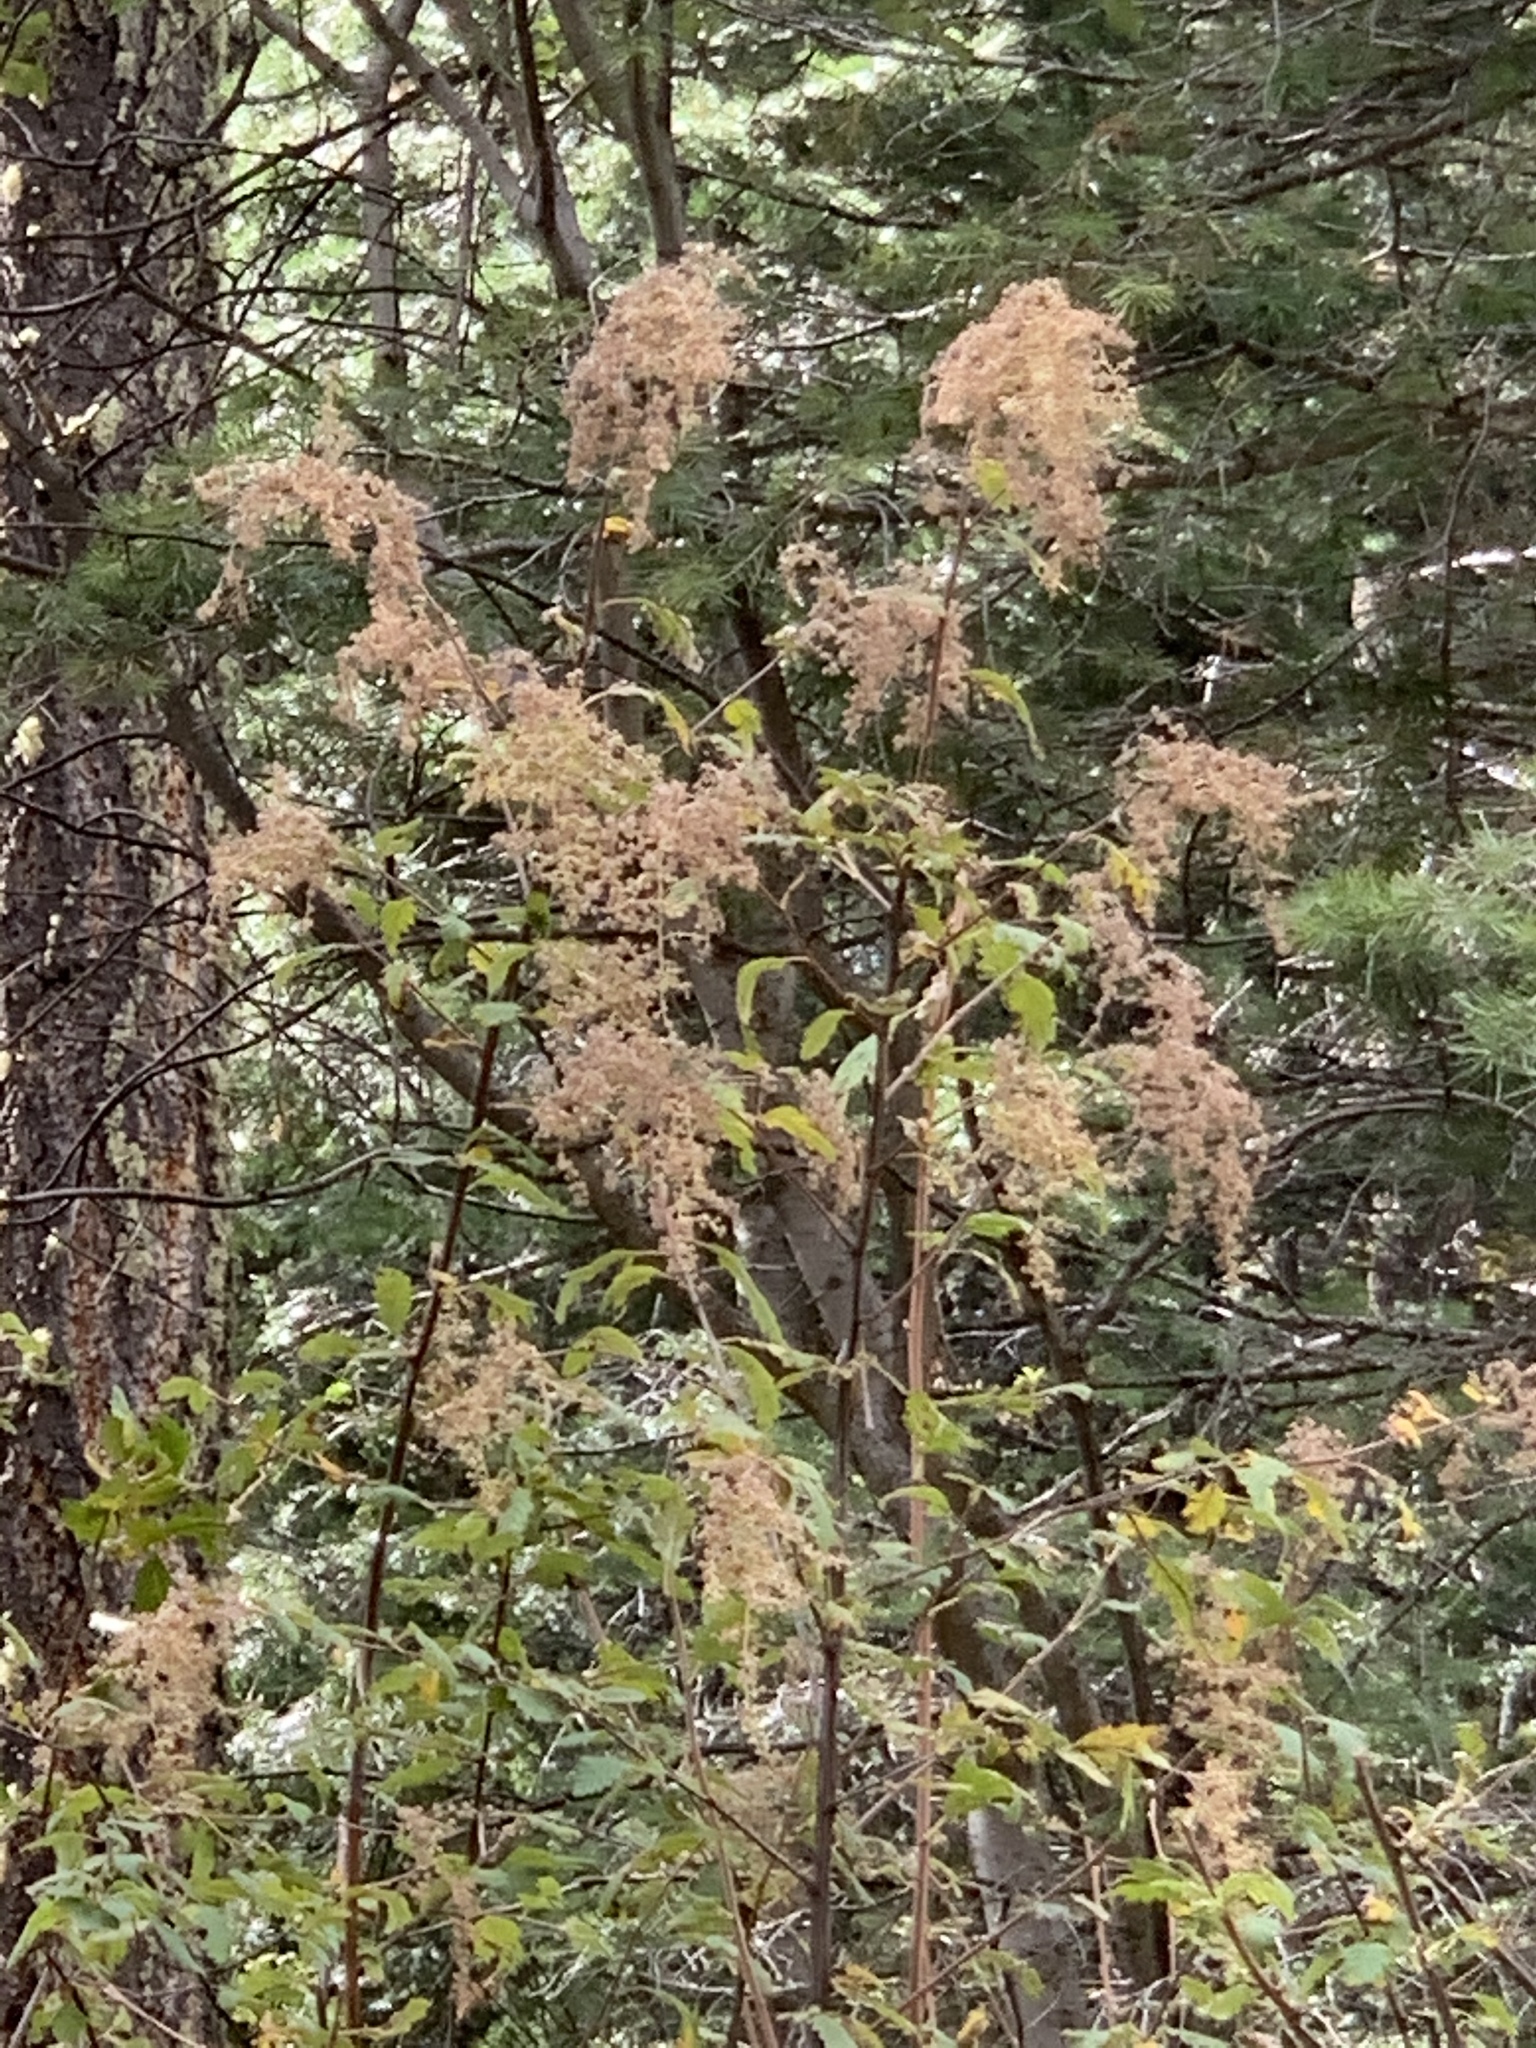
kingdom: Plantae
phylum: Tracheophyta
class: Magnoliopsida
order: Rosales
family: Rosaceae
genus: Holodiscus
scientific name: Holodiscus discolor
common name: Oceanspray
